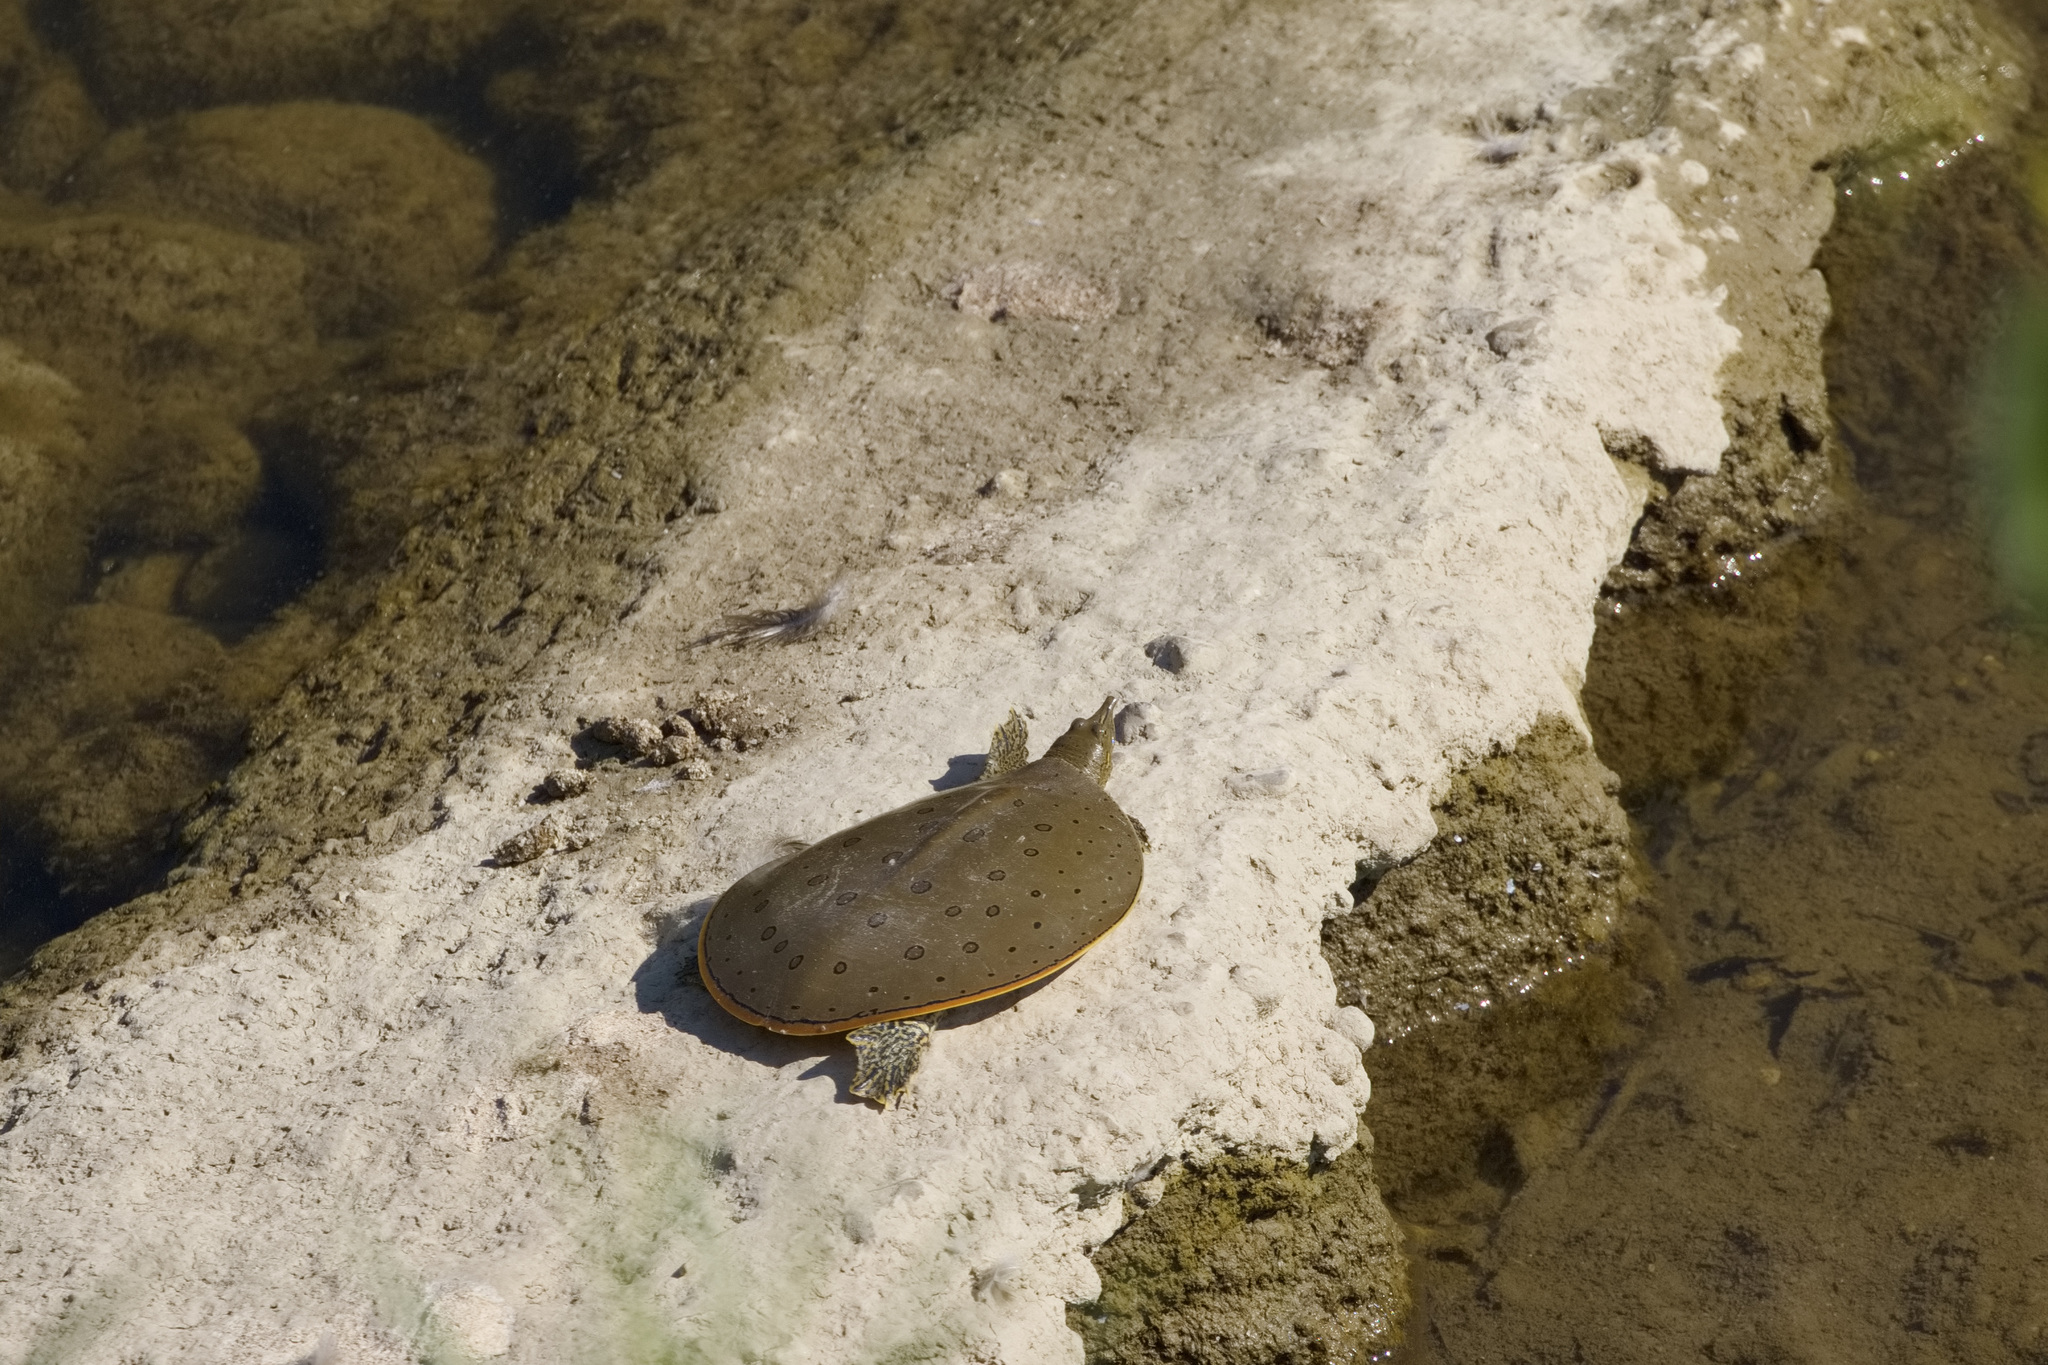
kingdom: Animalia
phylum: Chordata
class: Testudines
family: Trionychidae
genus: Apalone
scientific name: Apalone spinifera
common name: Spiny softshell turtle
